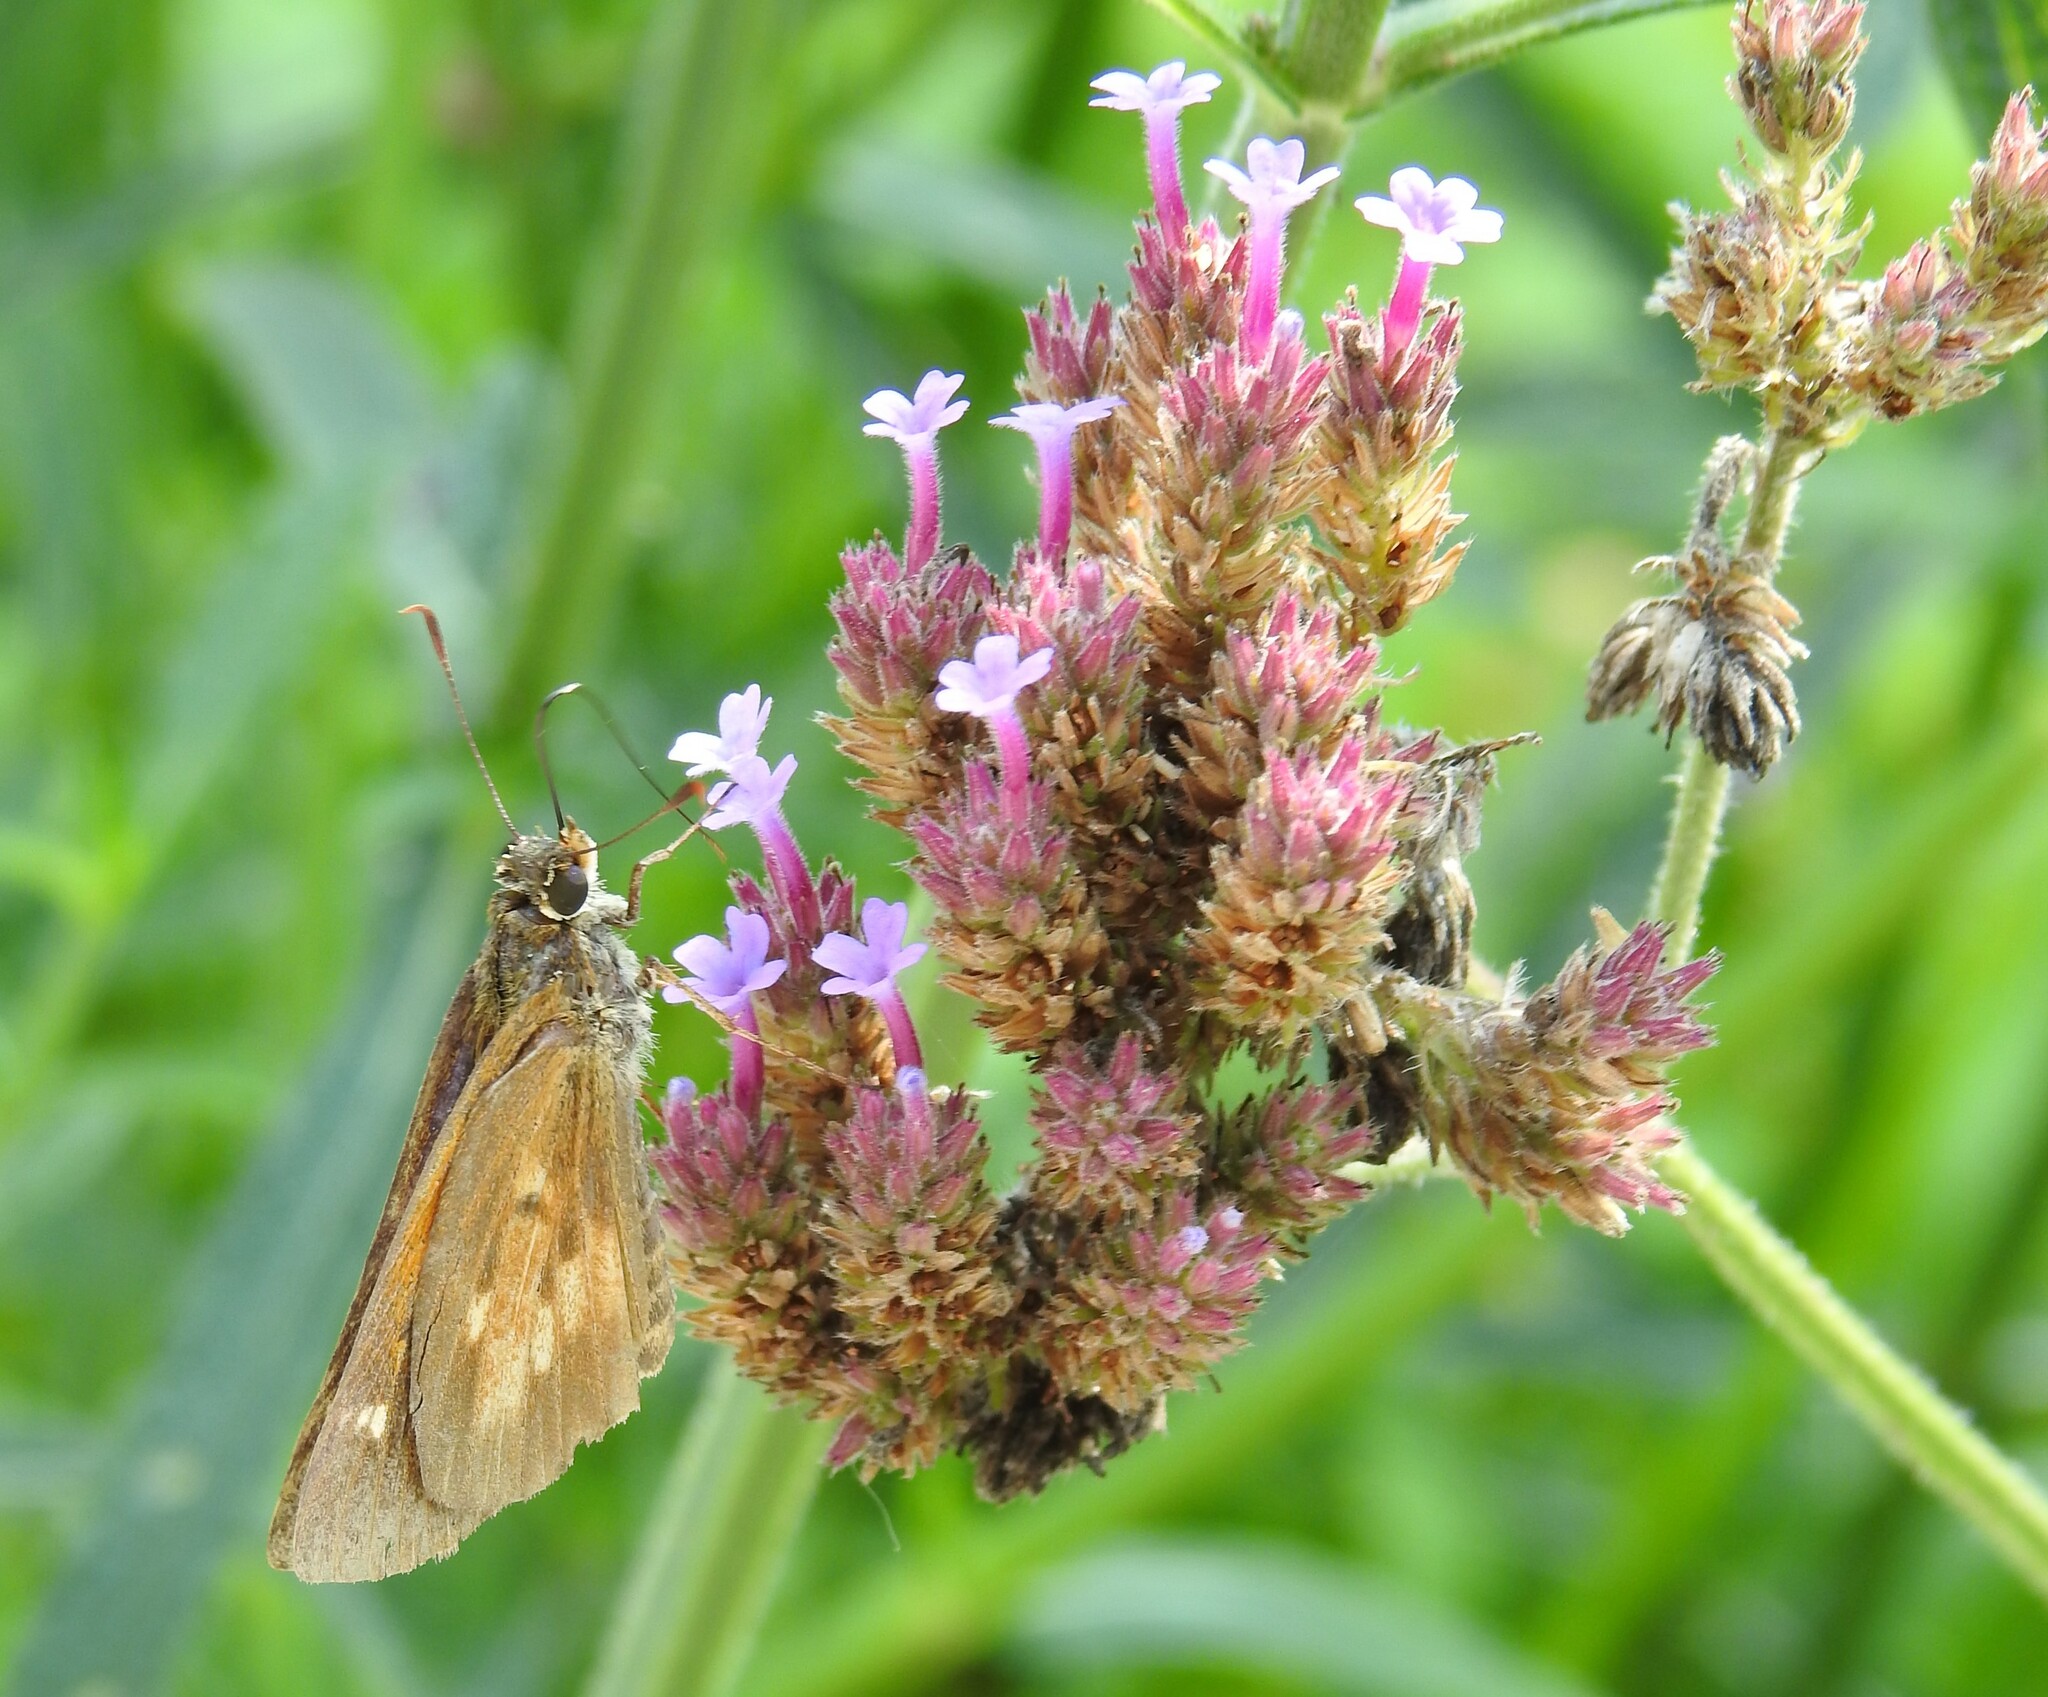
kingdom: Animalia
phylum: Arthropoda
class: Insecta
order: Lepidoptera
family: Hesperiidae
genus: Poanes
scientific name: Poanes viator
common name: Broad-winged skipper
